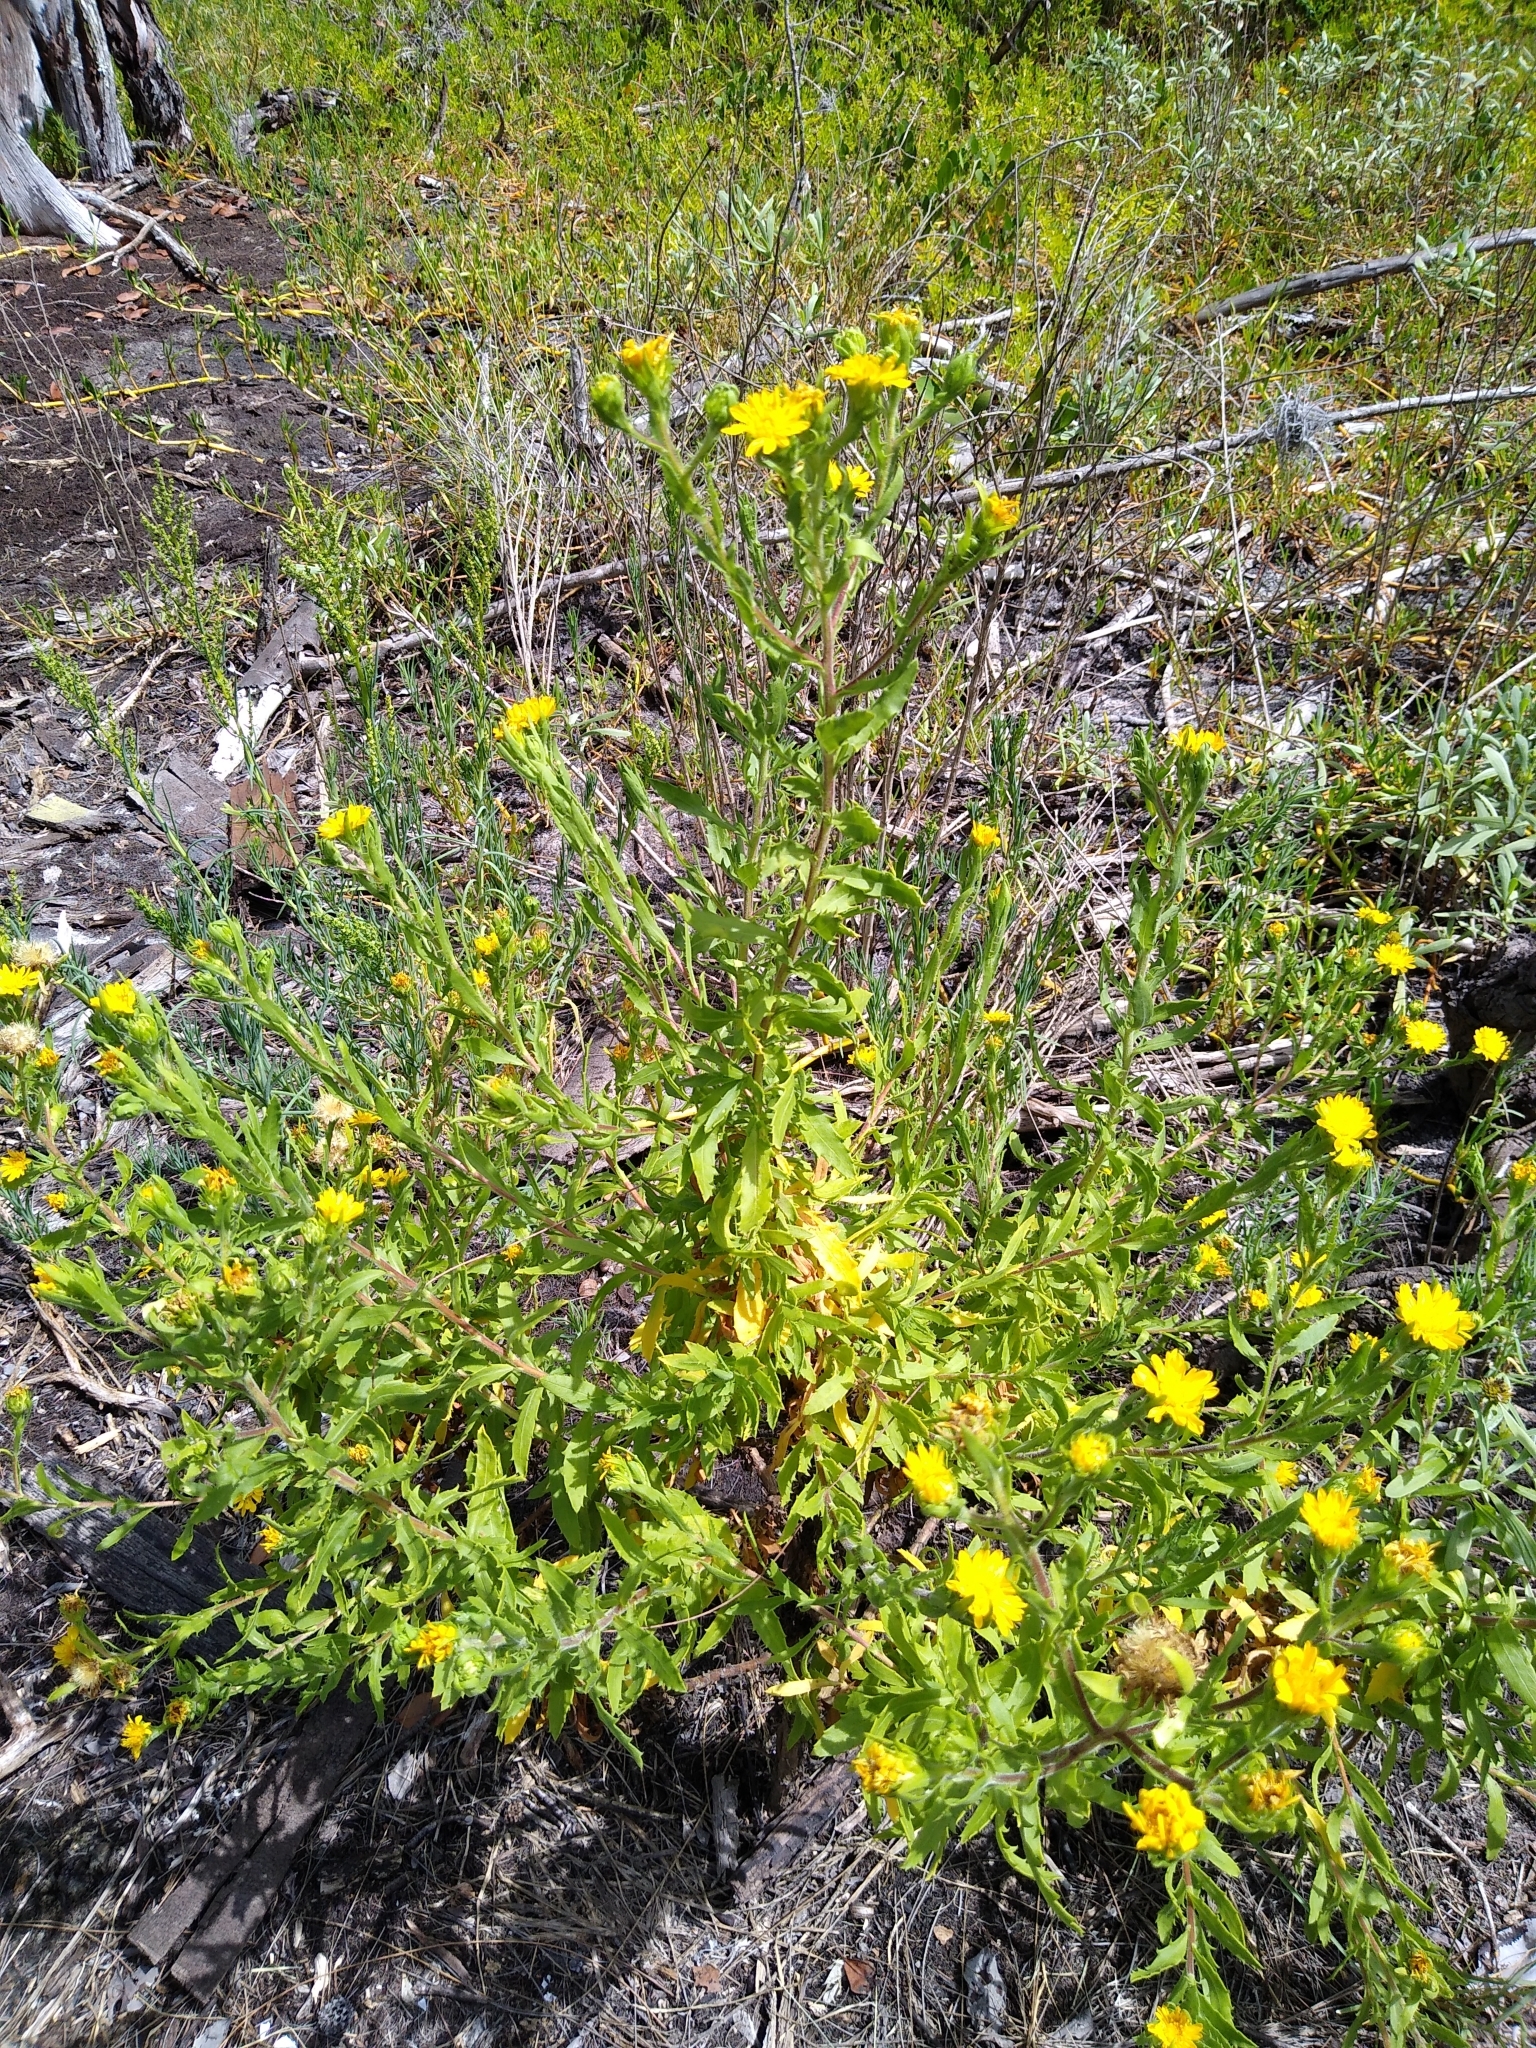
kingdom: Plantae
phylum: Tracheophyta
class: Magnoliopsida
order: Asterales
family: Asteraceae
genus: Heterotheca
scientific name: Heterotheca subaxillaris
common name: Camphorweed
